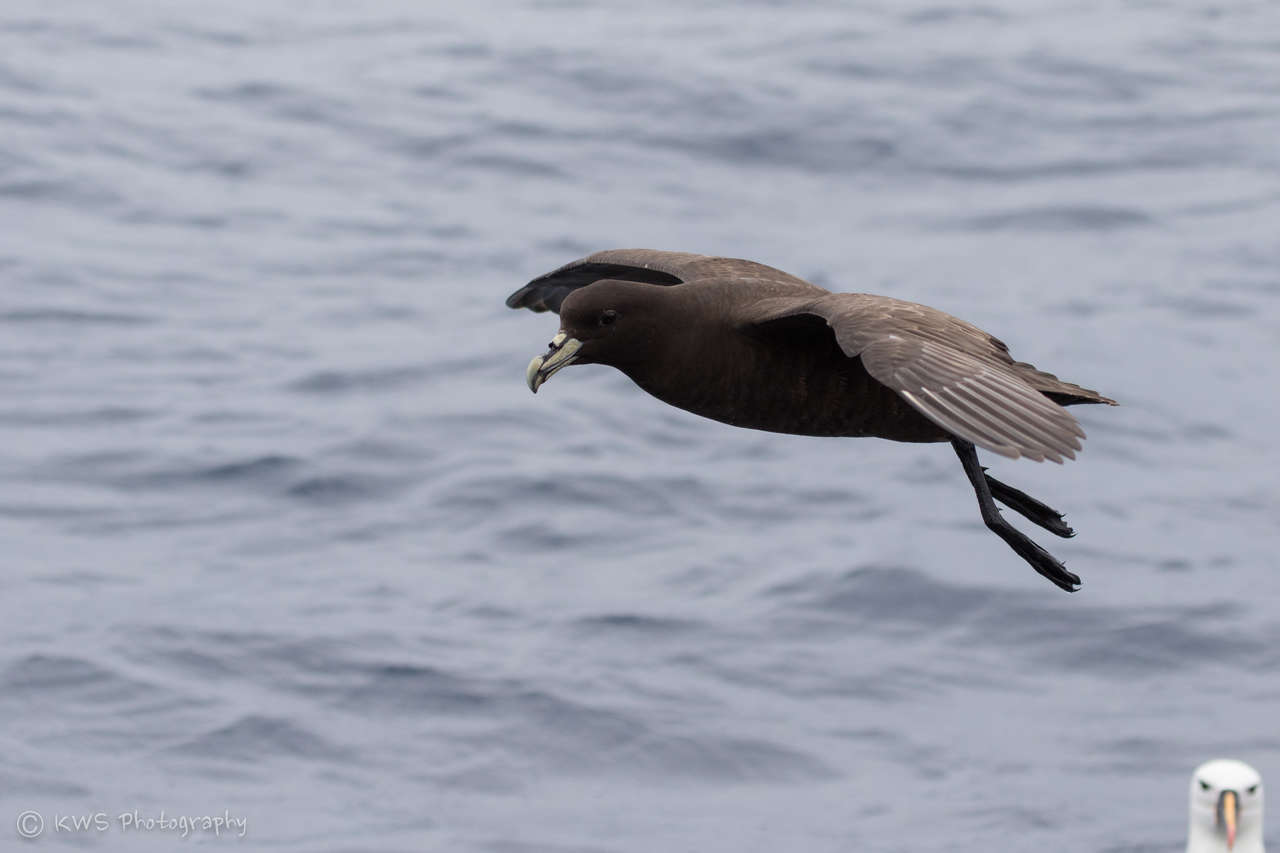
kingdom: Animalia
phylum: Chordata
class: Aves
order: Procellariiformes
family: Procellariidae
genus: Procellaria
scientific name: Procellaria aequinoctialis
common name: White-chinned petrel
